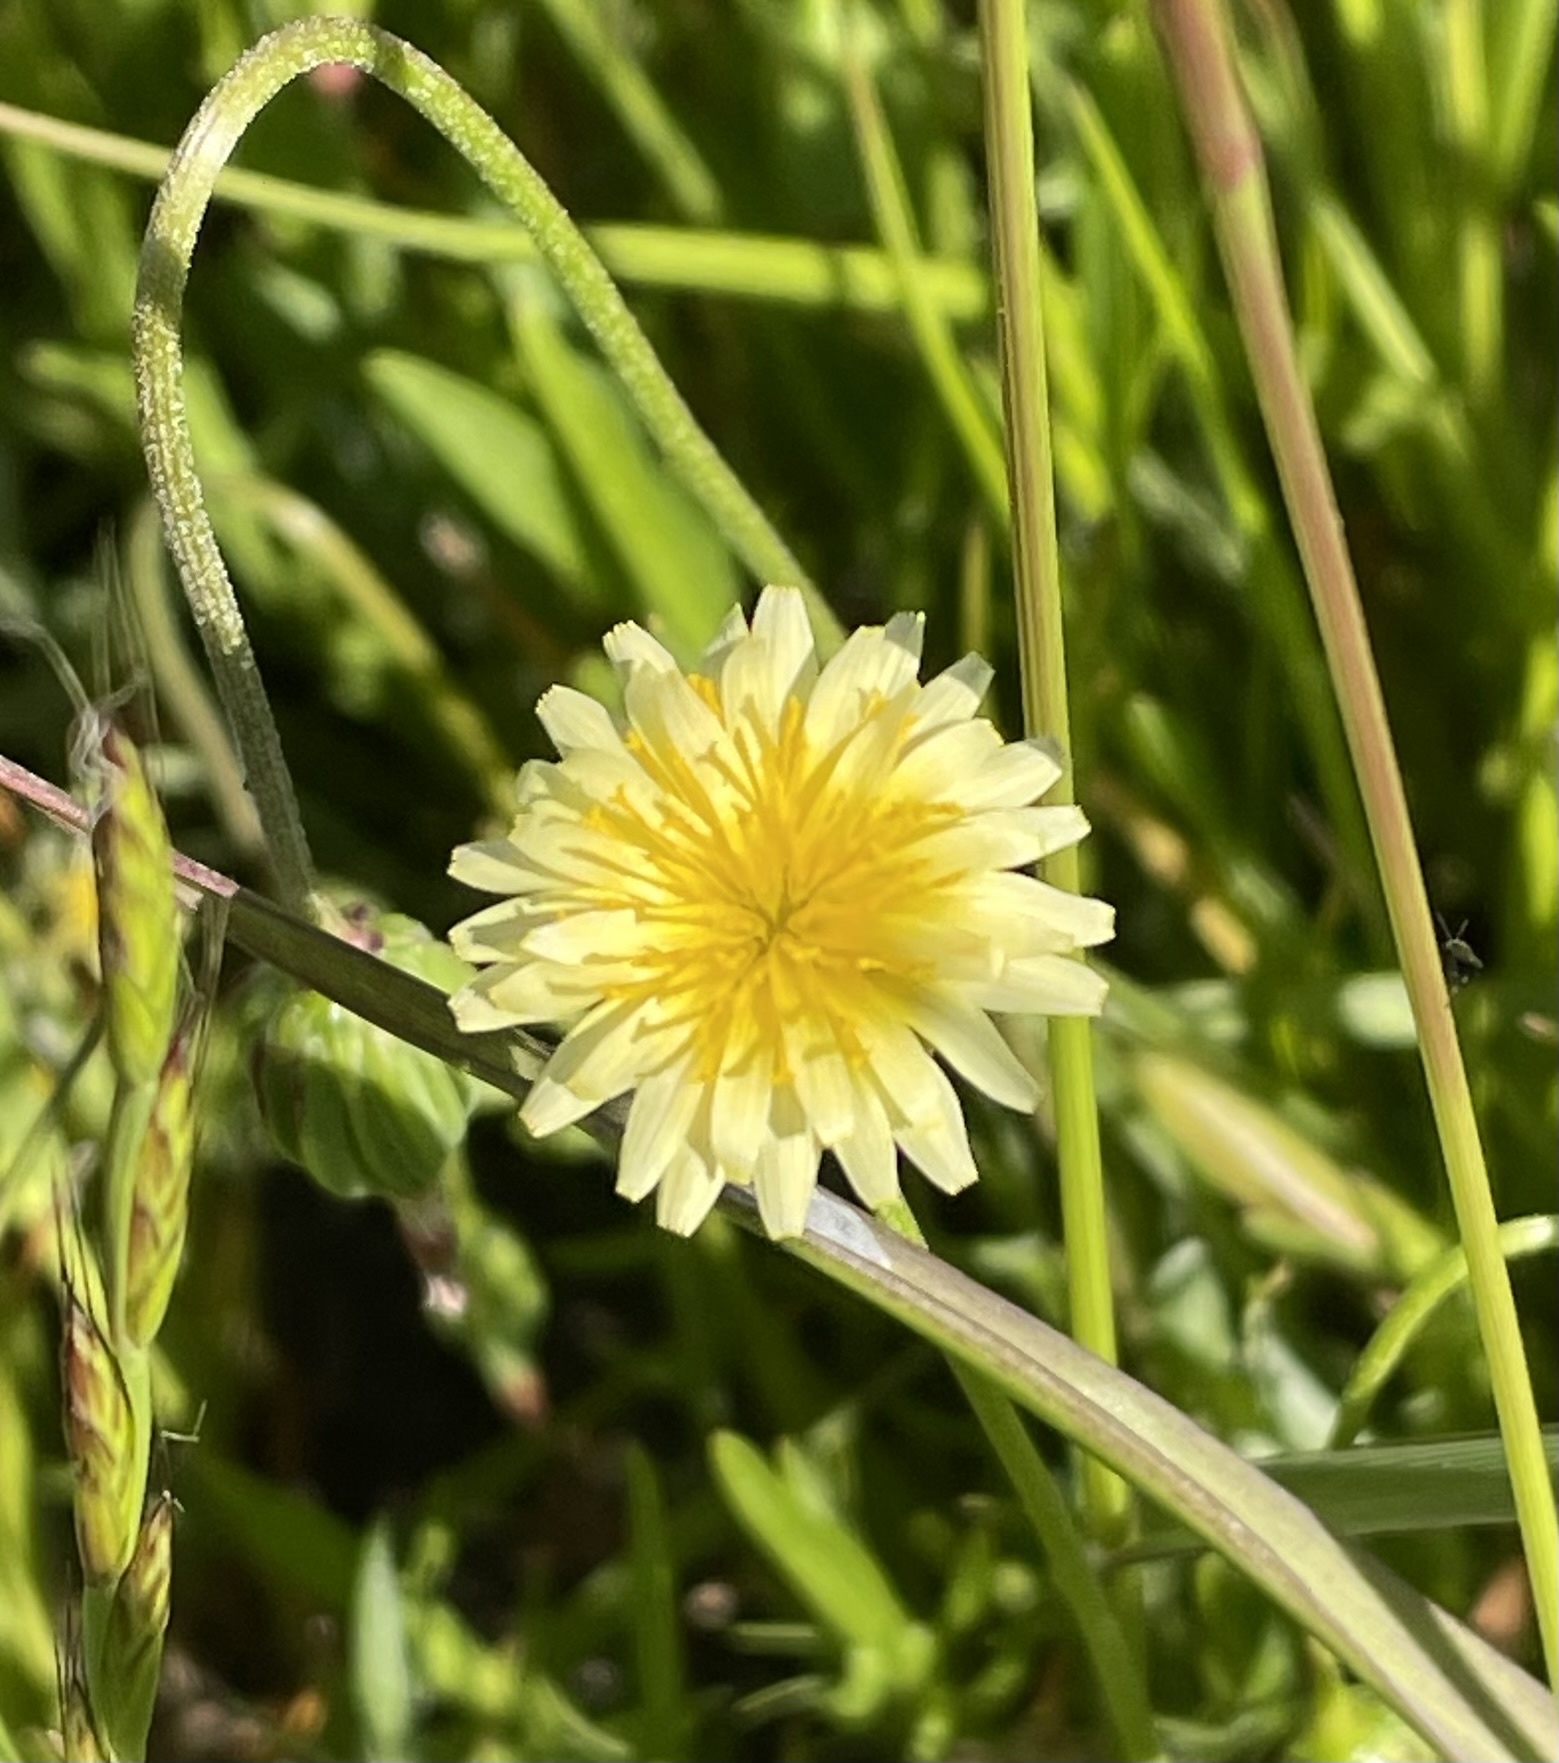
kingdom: Plantae
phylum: Tracheophyta
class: Magnoliopsida
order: Asterales
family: Asteraceae
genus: Microseris
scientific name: Microseris douglasii
